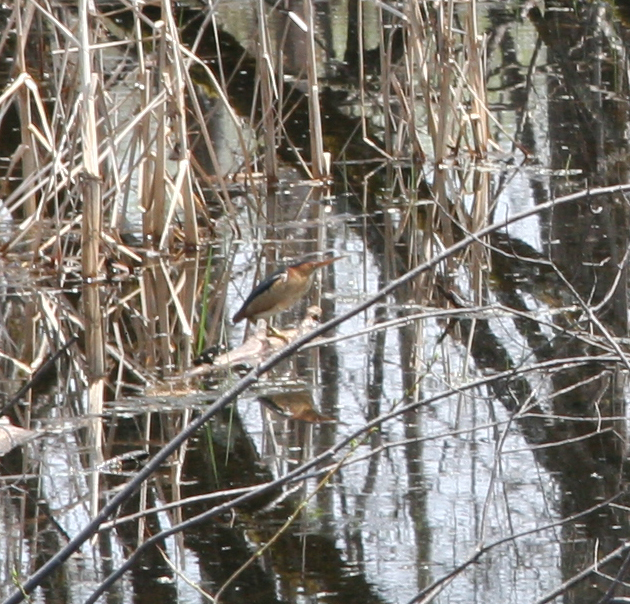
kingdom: Animalia
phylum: Chordata
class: Aves
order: Pelecaniformes
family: Ardeidae
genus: Ixobrychus
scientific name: Ixobrychus exilis
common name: Least bittern
